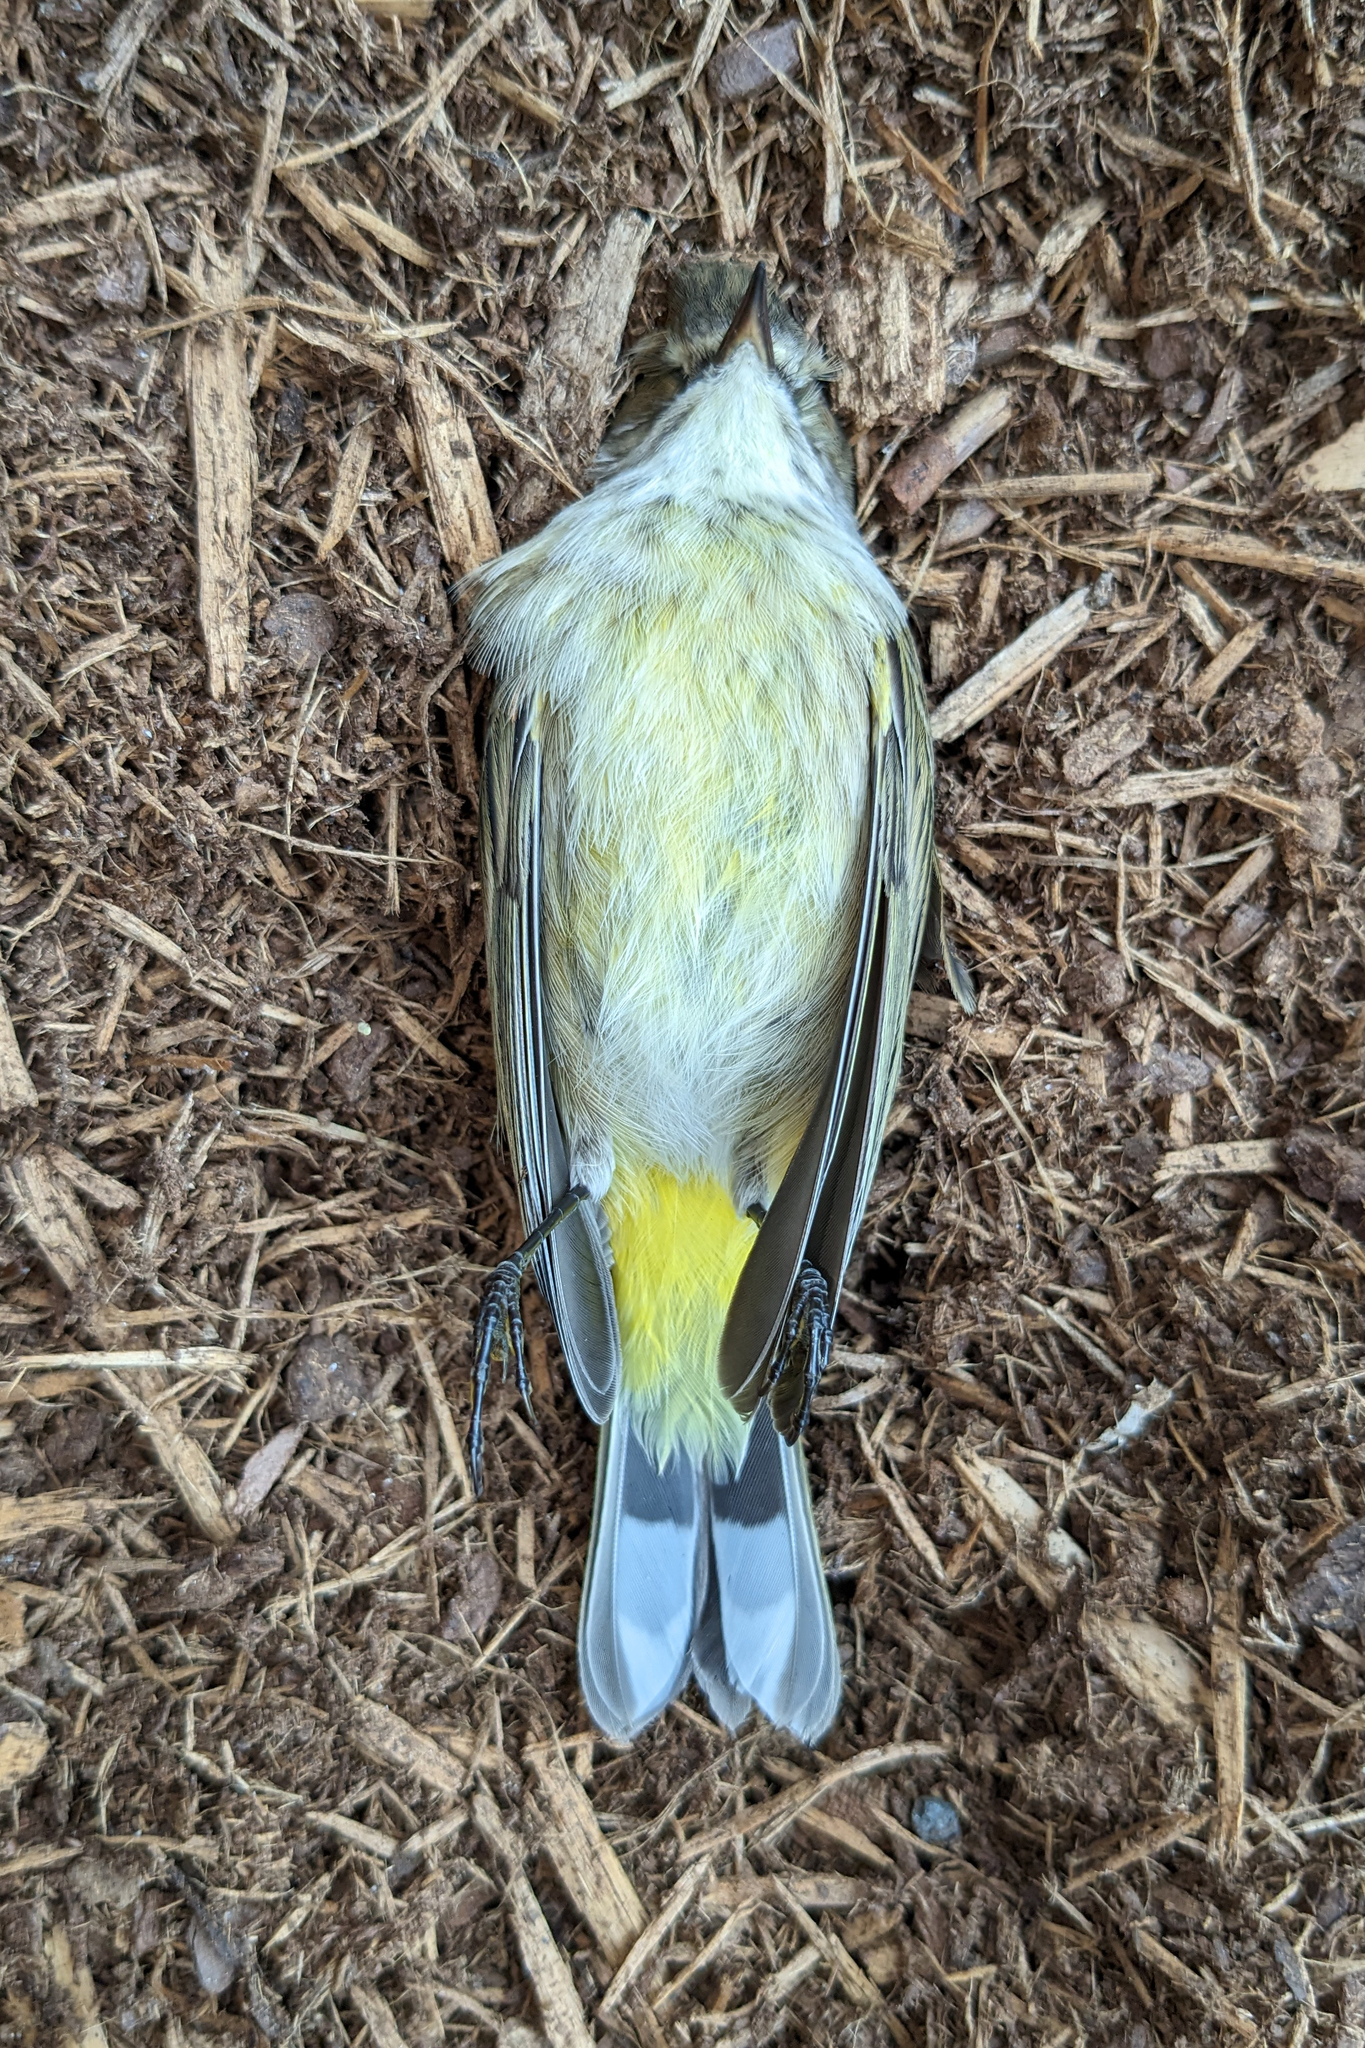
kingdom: Animalia
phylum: Chordata
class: Aves
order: Passeriformes
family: Parulidae
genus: Setophaga
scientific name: Setophaga palmarum
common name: Palm warbler
